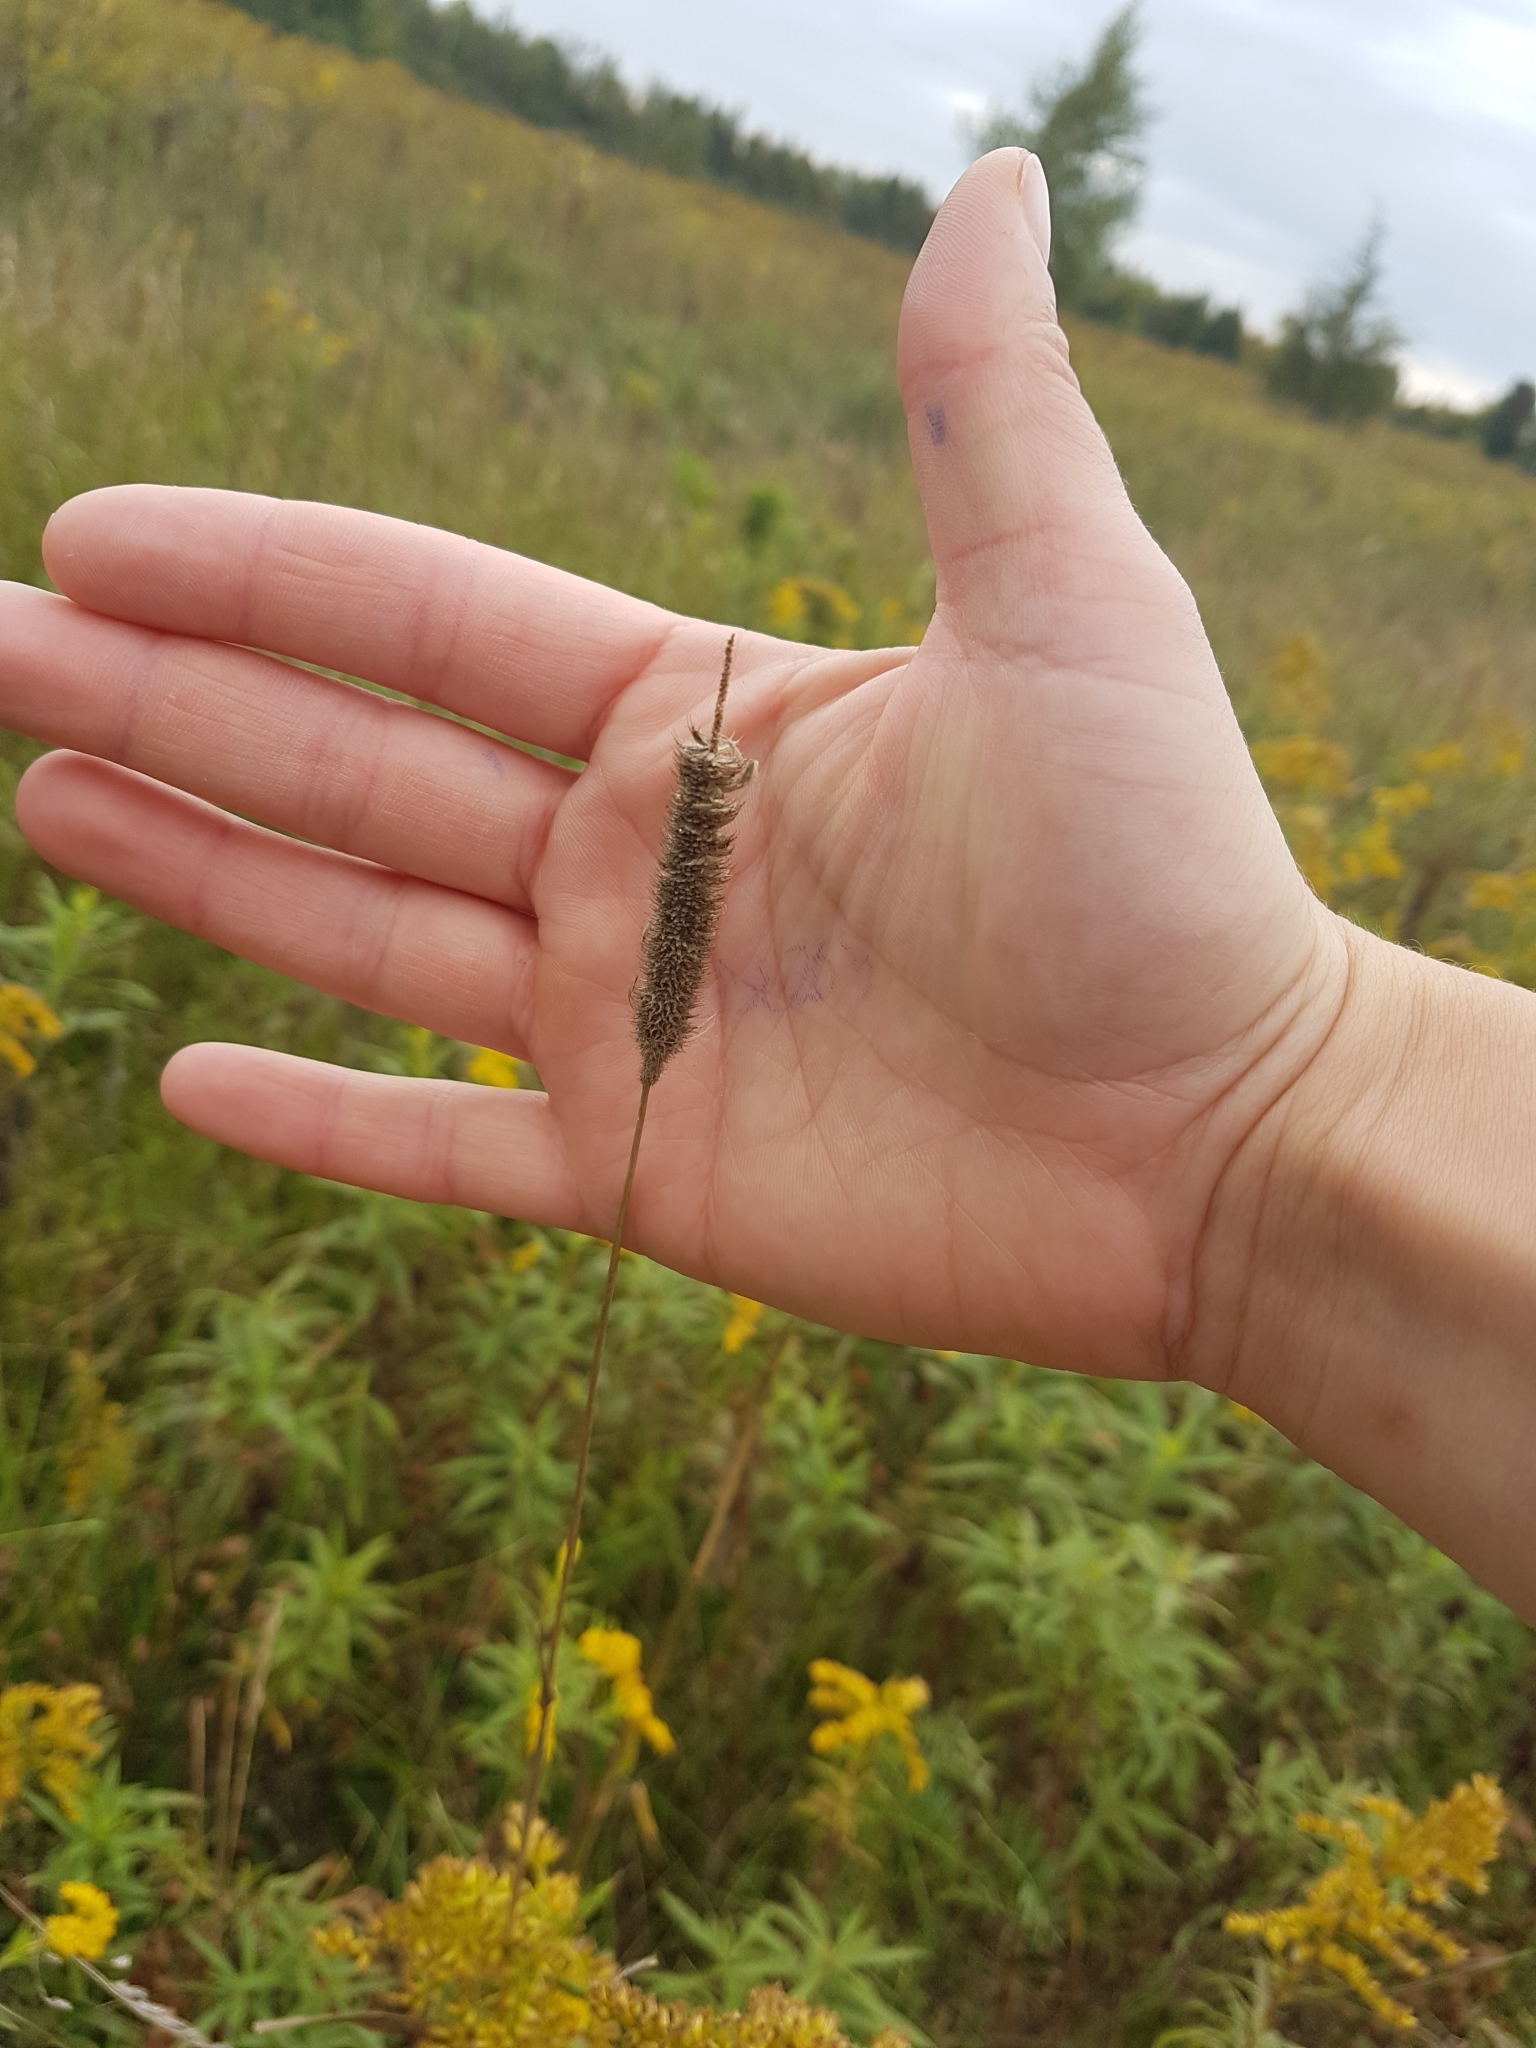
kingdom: Plantae
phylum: Tracheophyta
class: Liliopsida
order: Poales
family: Poaceae
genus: Phleum
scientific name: Phleum pratense
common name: Timothy grass
